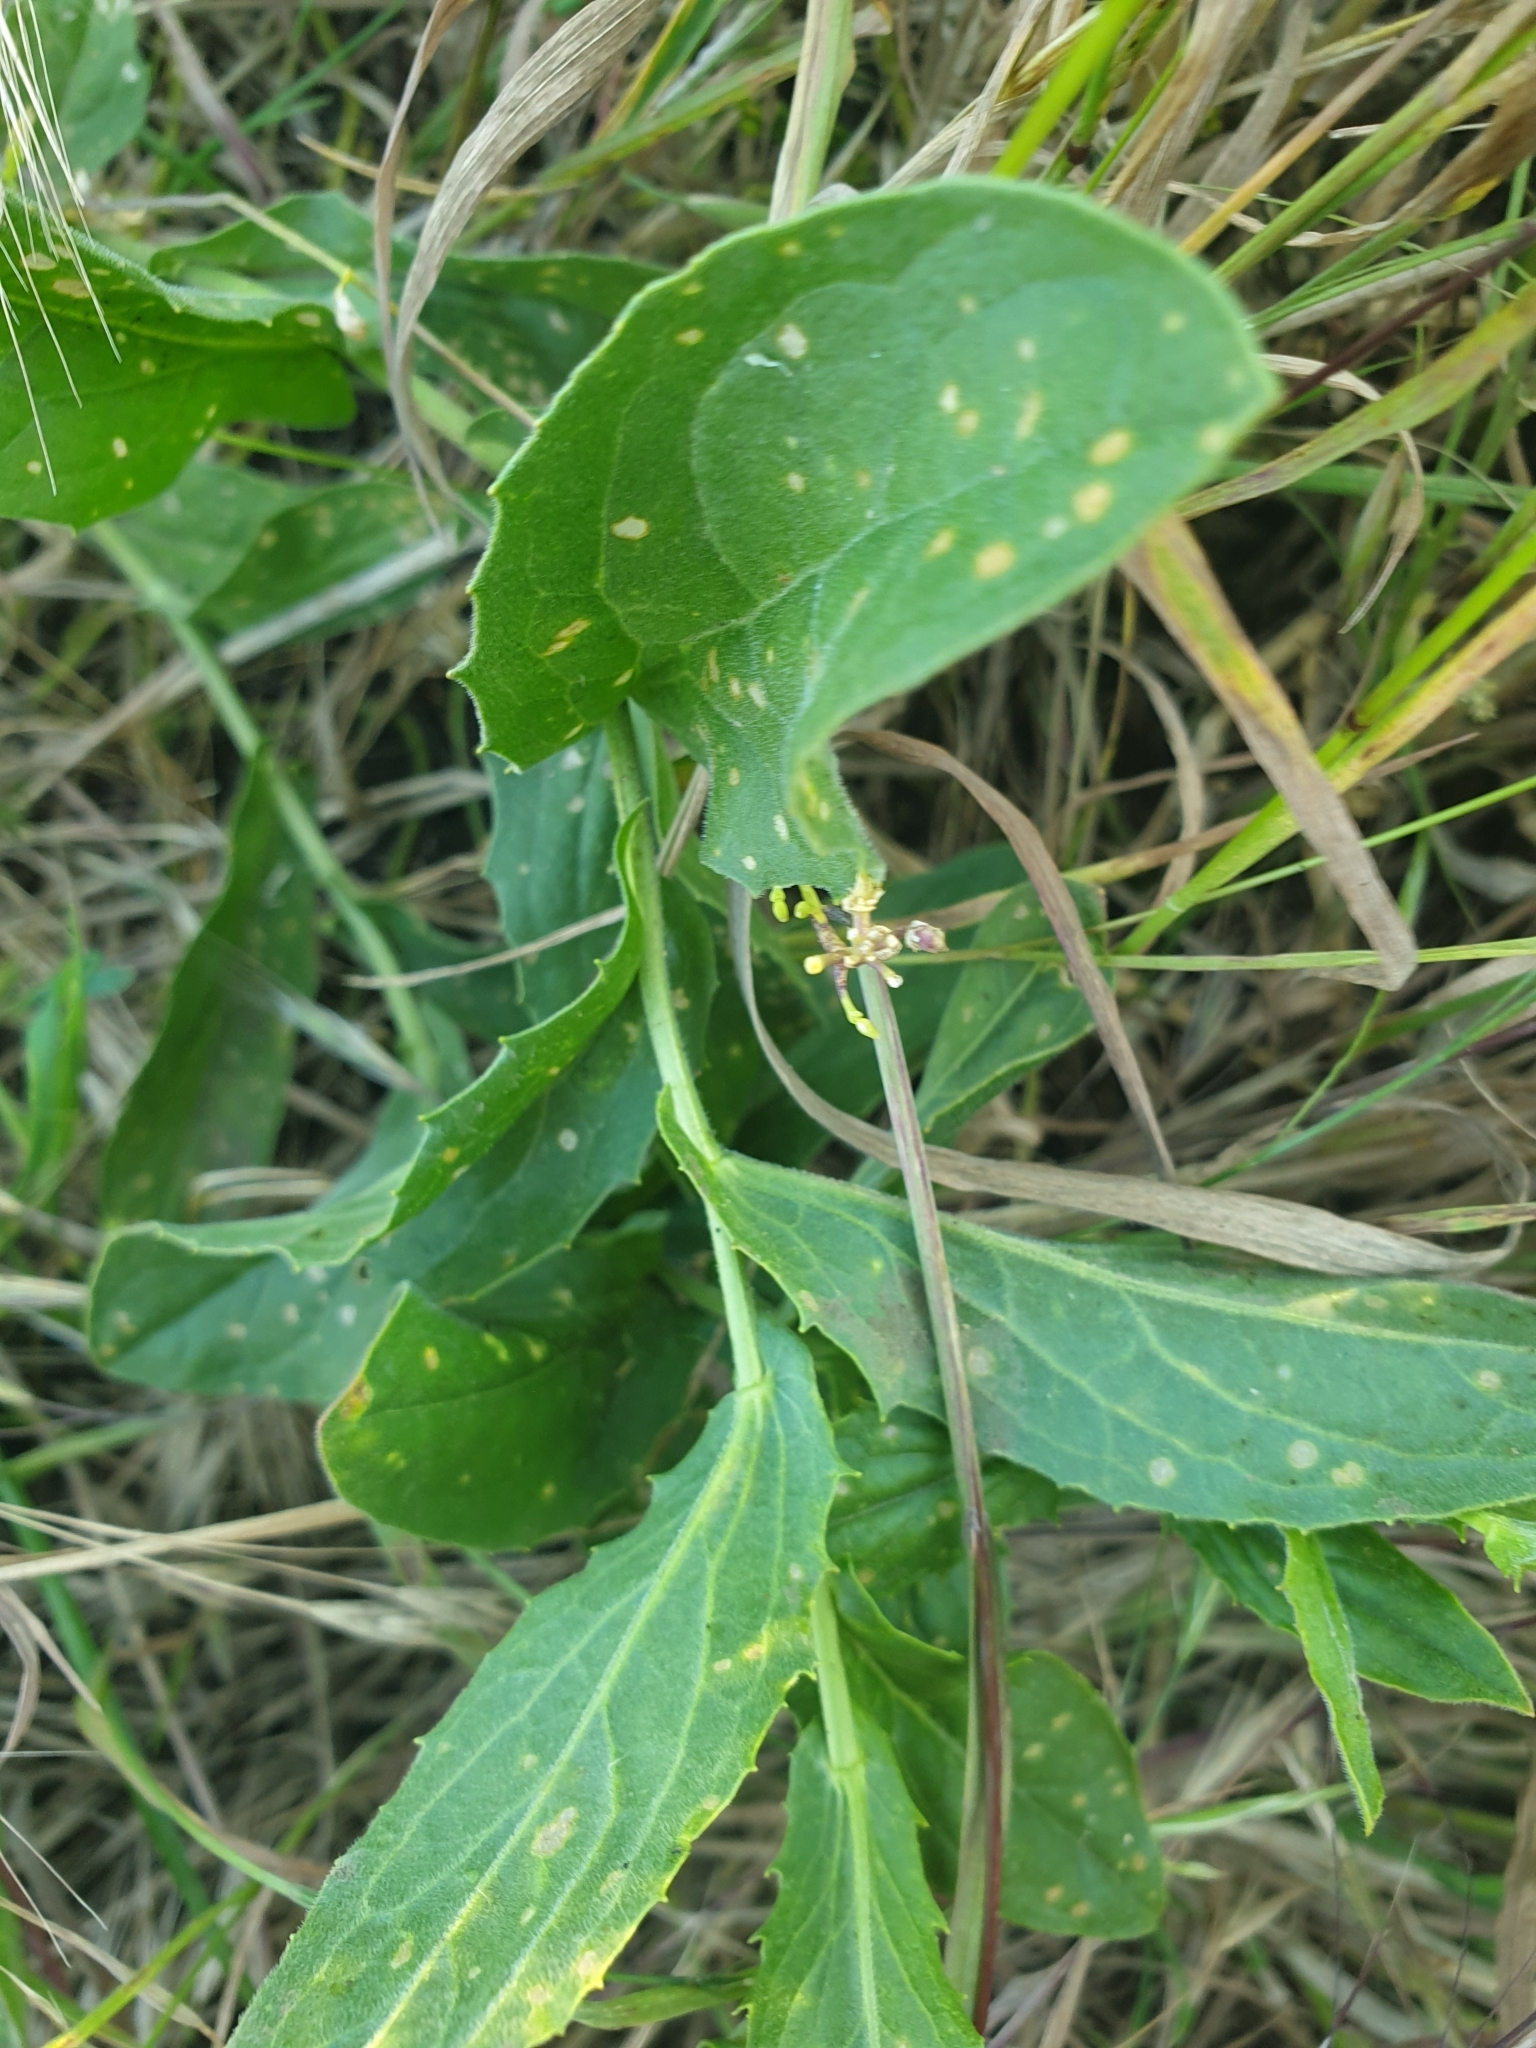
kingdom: Plantae
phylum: Tracheophyta
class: Magnoliopsida
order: Brassicales
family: Brassicaceae
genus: Lepidium
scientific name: Lepidium draba
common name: Hoary cress
